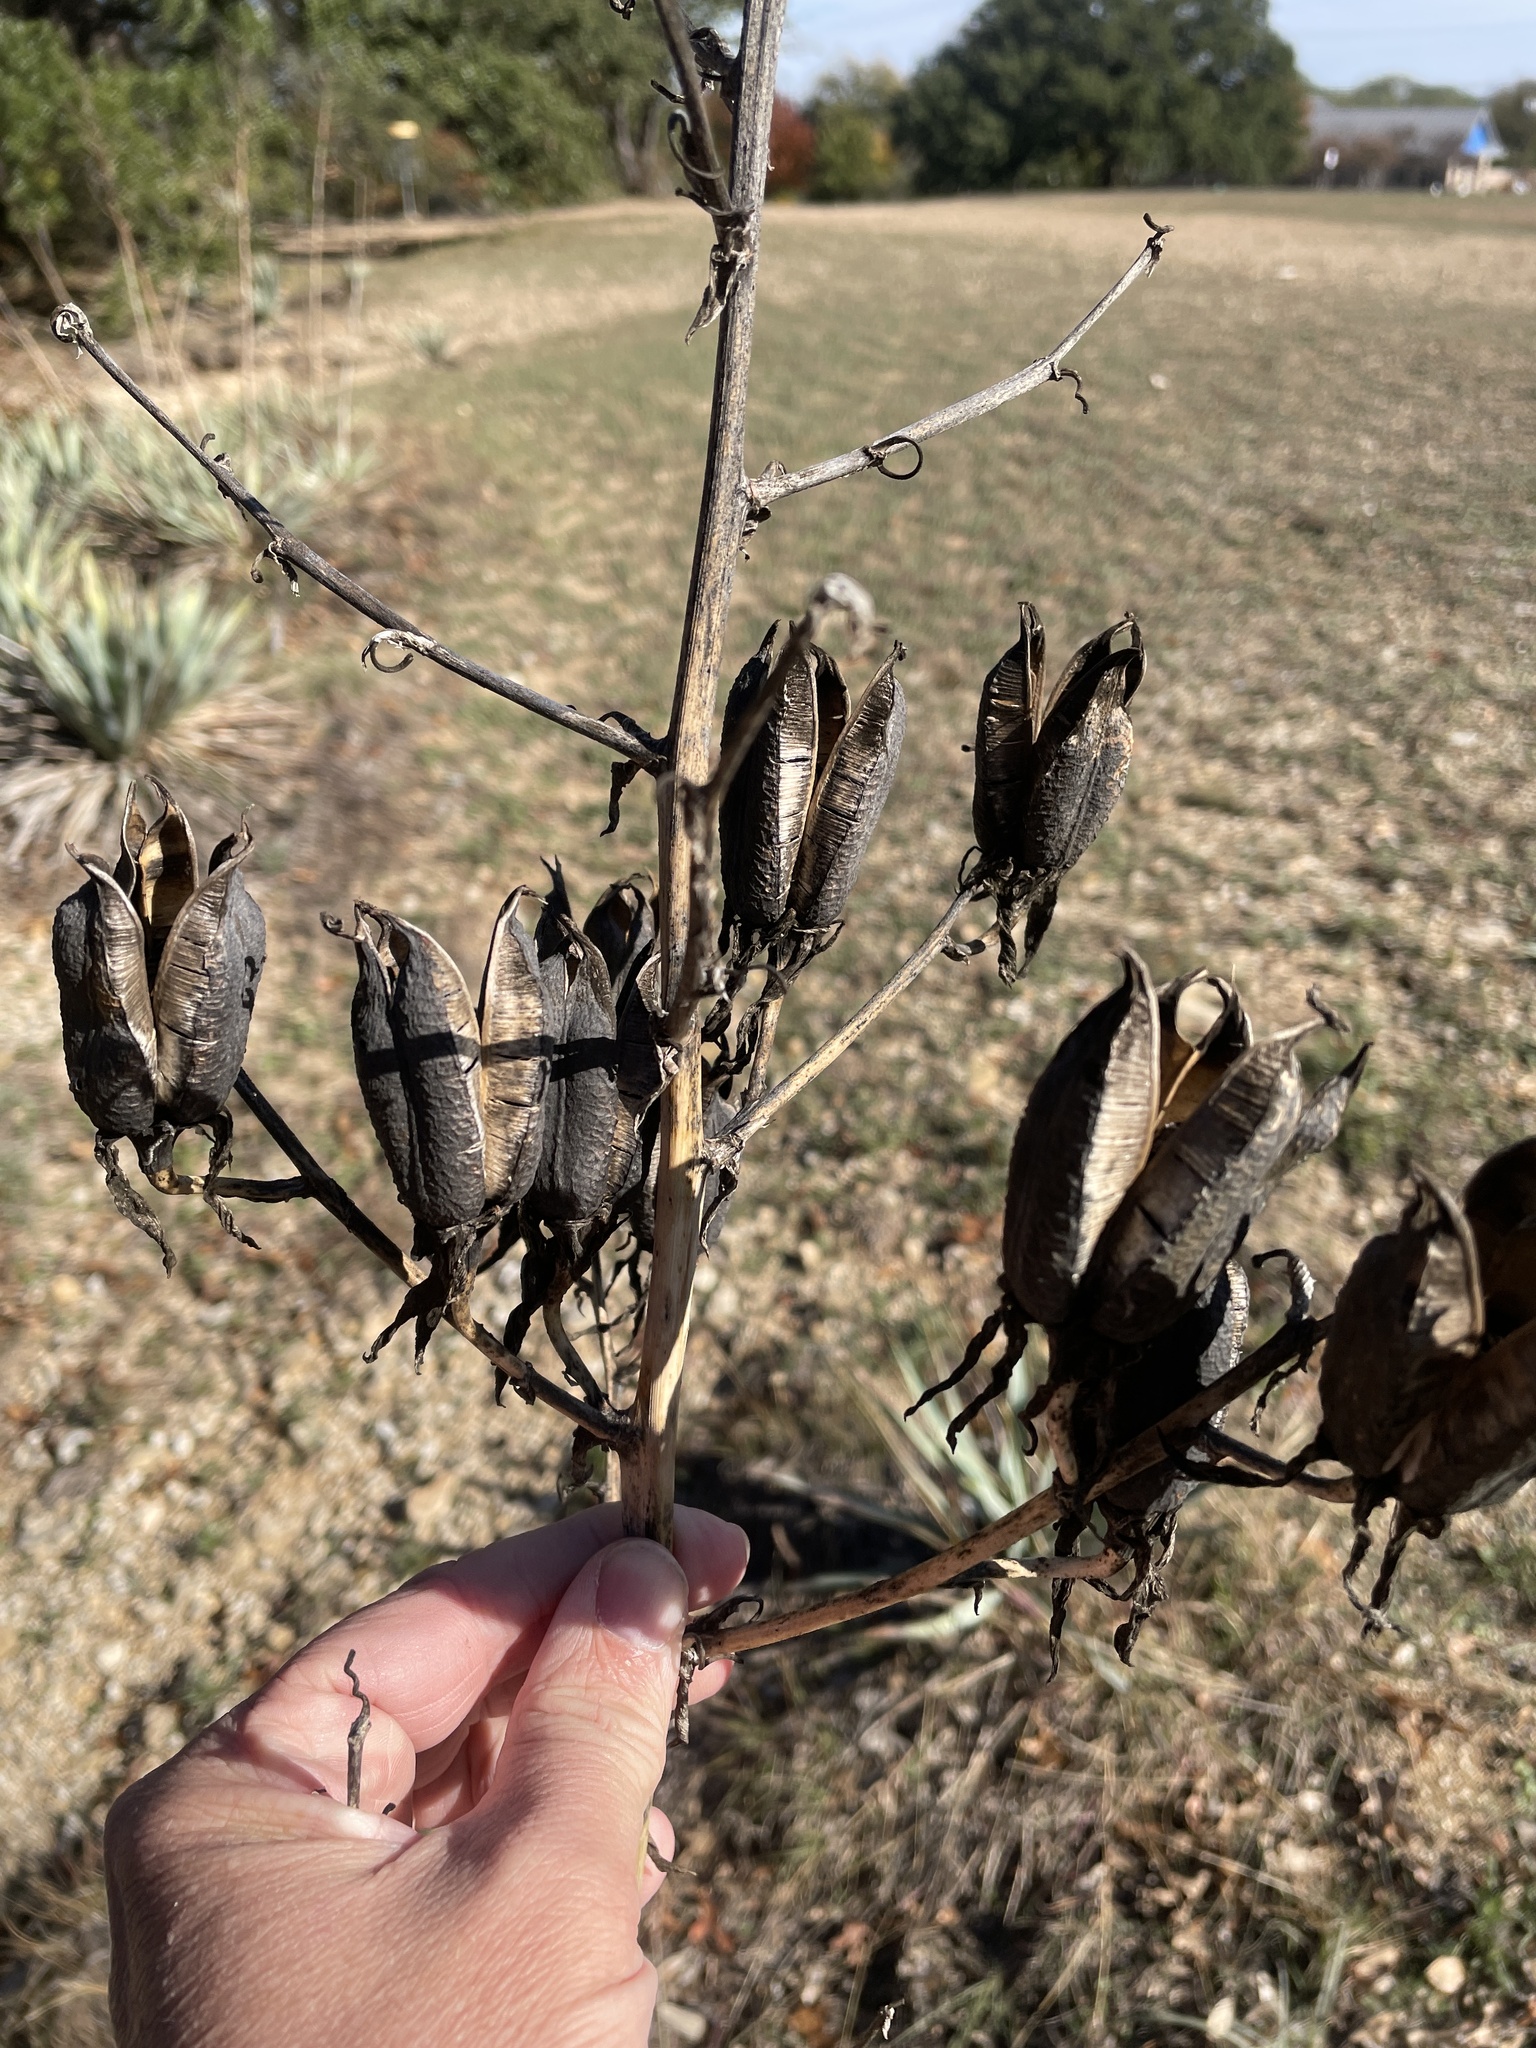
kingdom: Plantae
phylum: Tracheophyta
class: Liliopsida
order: Asparagales
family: Asparagaceae
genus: Yucca
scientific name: Yucca pallida
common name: Pale leaf yucca
